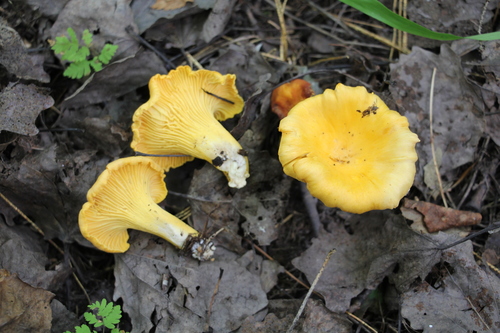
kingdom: Fungi
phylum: Basidiomycota
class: Agaricomycetes
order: Cantharellales
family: Hydnaceae
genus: Cantharellus
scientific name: Cantharellus cibarius
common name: Chanterelle
